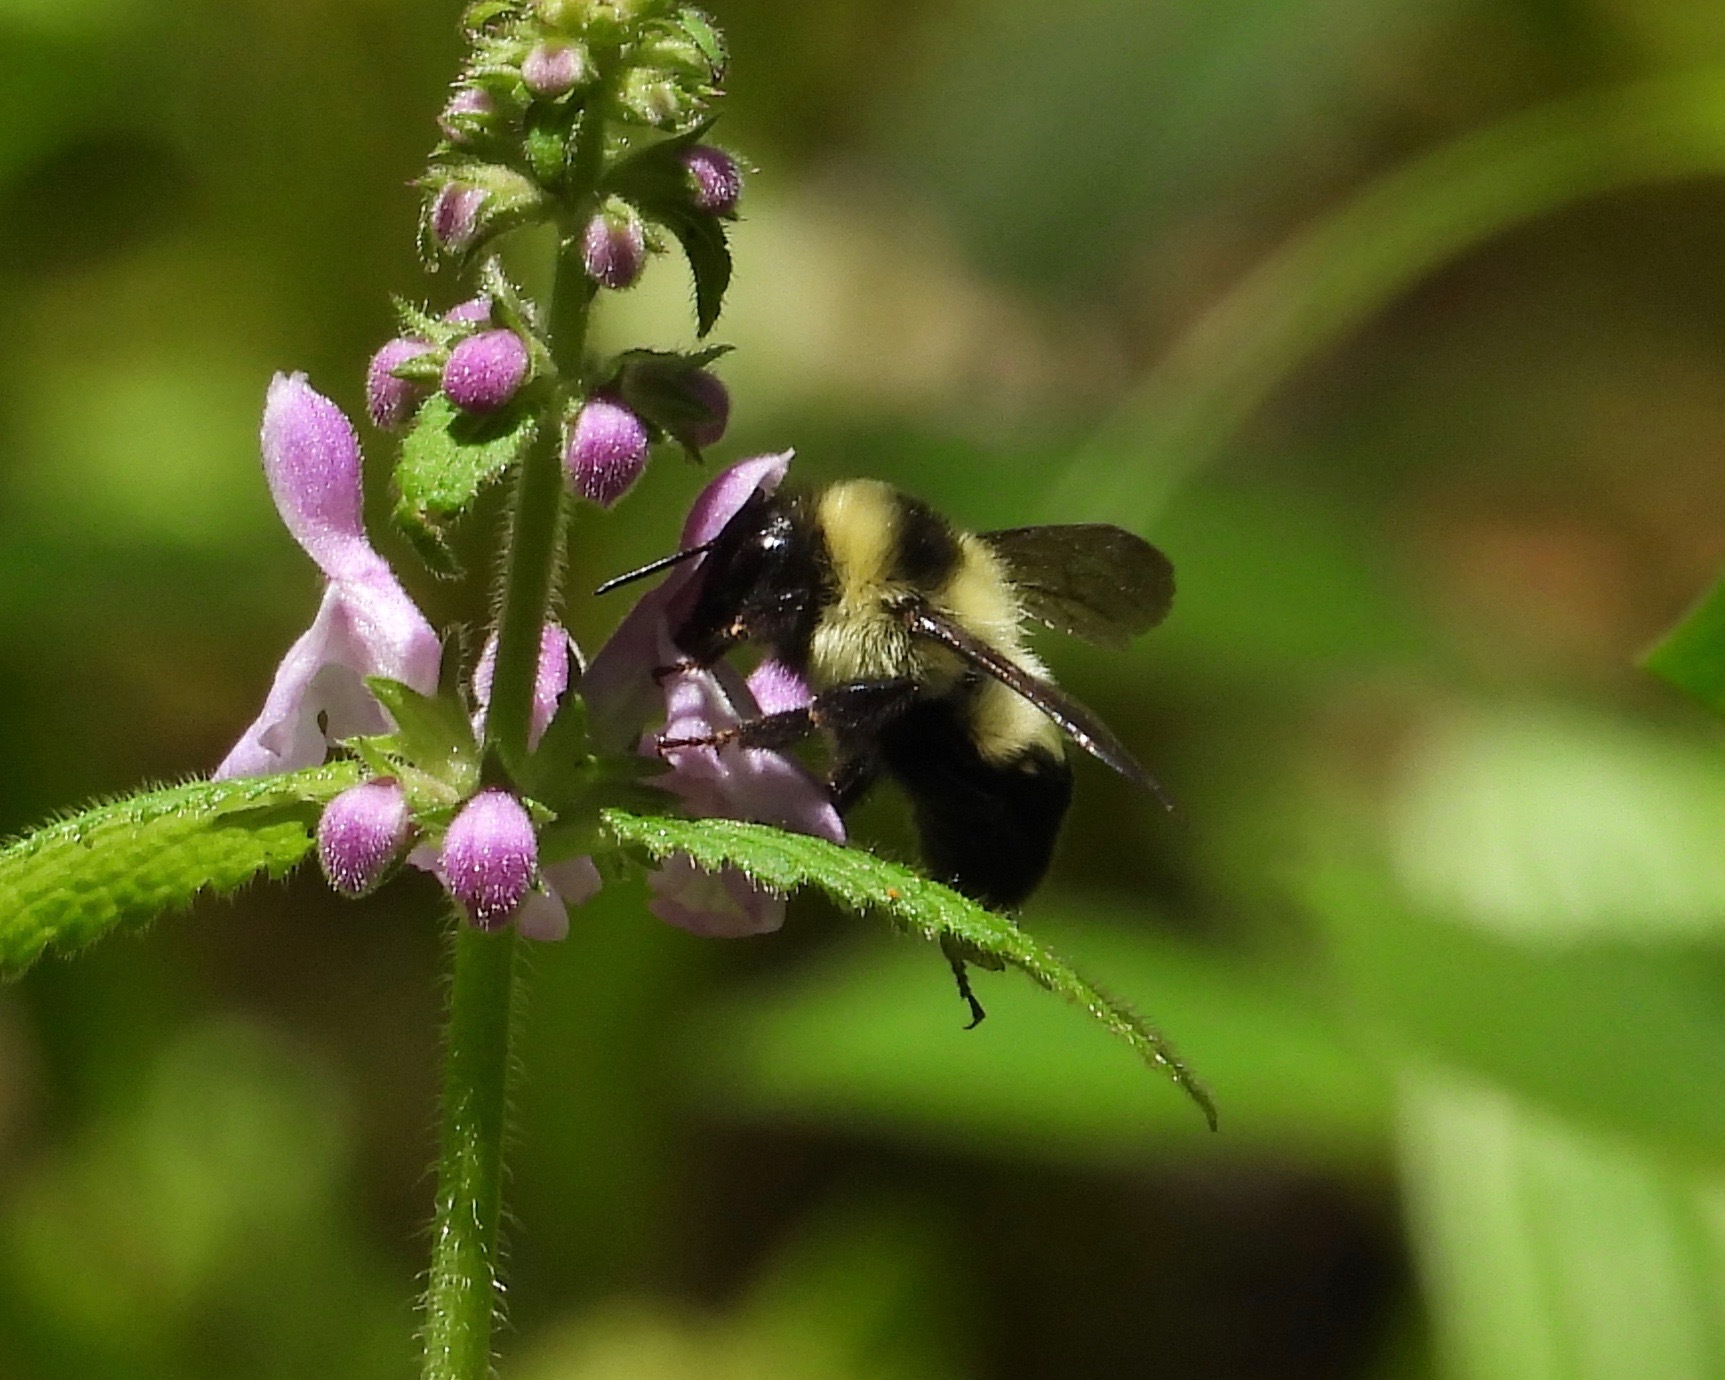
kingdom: Animalia
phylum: Arthropoda
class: Insecta
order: Hymenoptera
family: Apidae
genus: Bombus
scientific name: Bombus wilmattae
